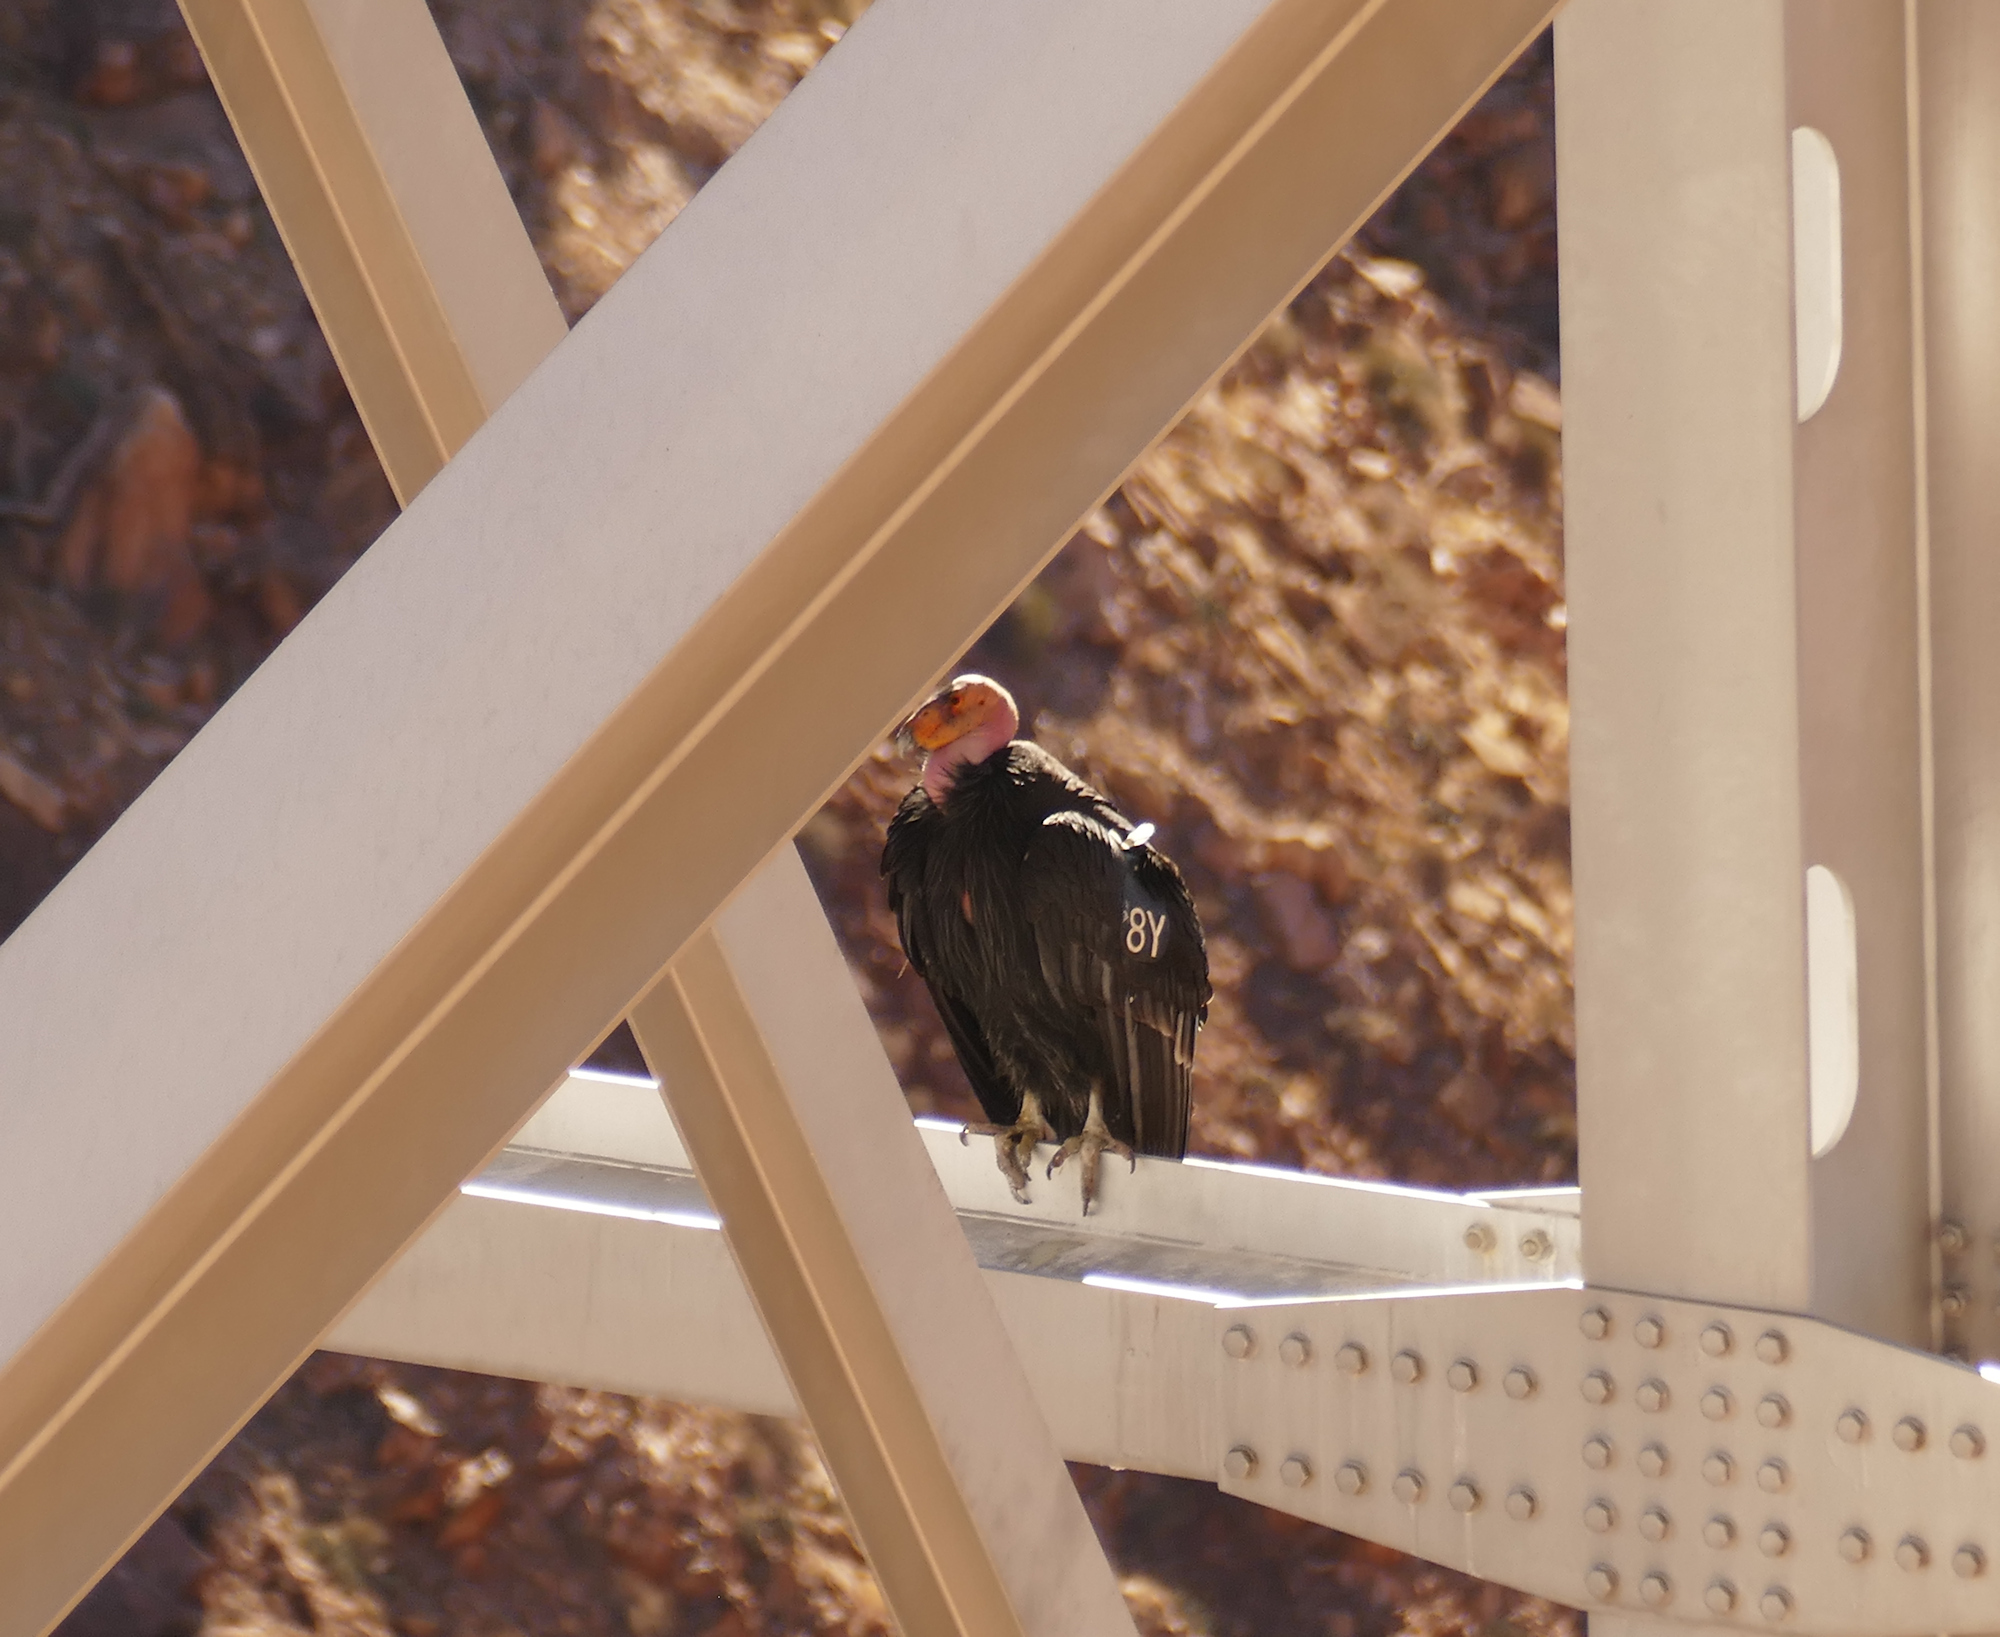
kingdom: Animalia
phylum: Chordata
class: Aves
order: Accipitriformes
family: Cathartidae
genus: Gymnogyps
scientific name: Gymnogyps californianus
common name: California condor
